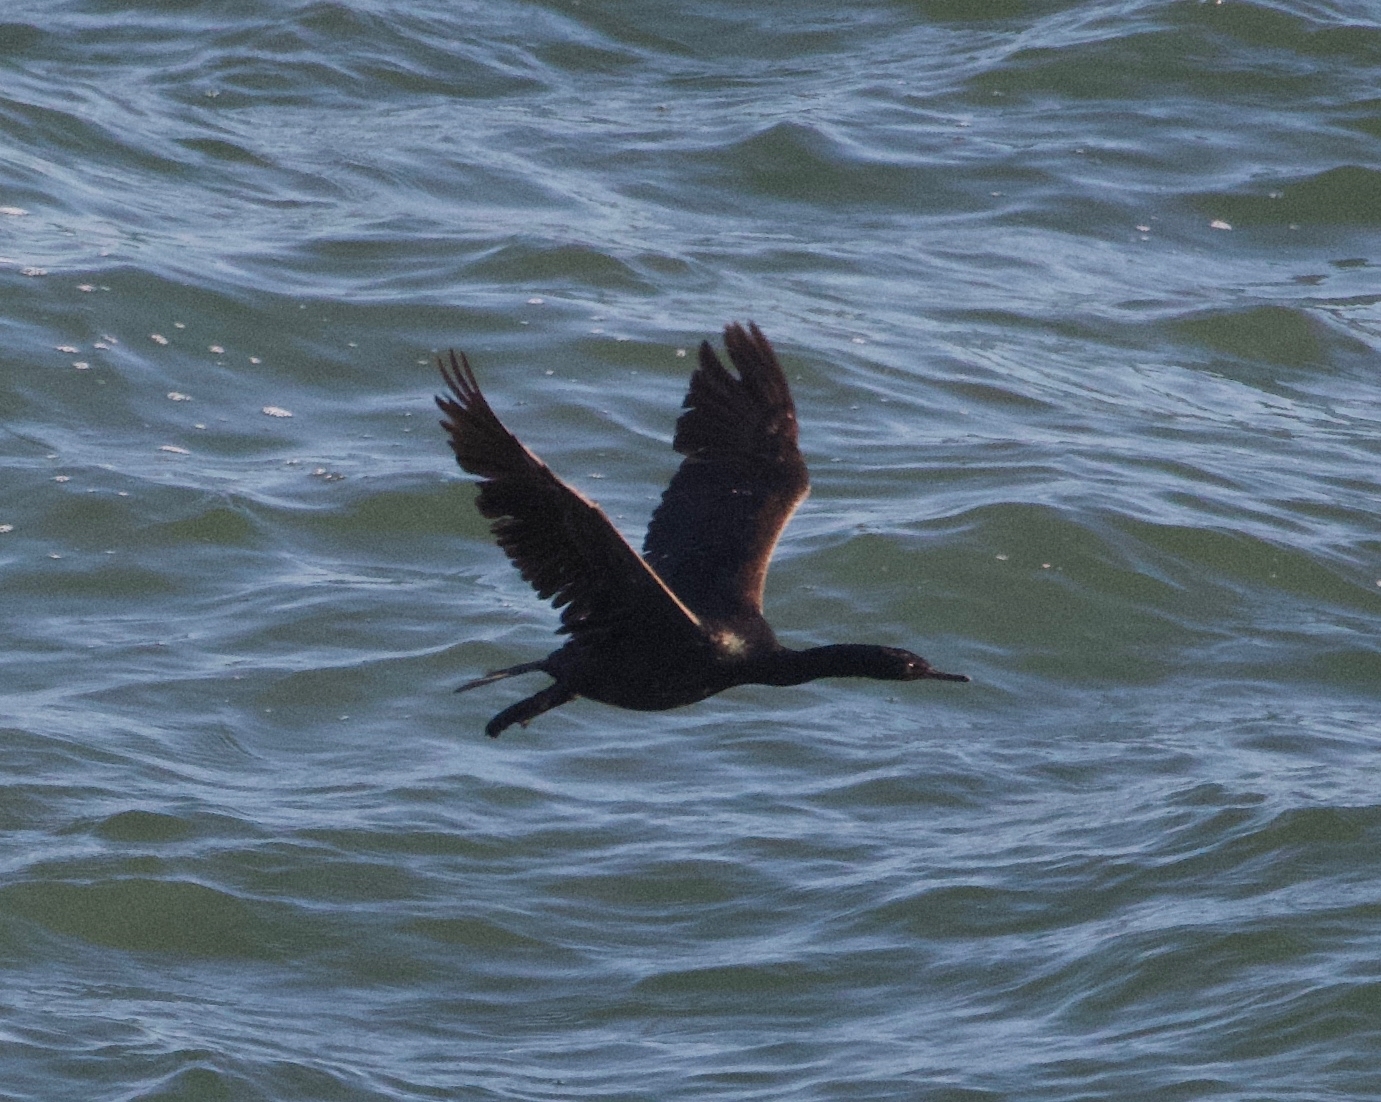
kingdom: Animalia
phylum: Chordata
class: Aves
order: Suliformes
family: Phalacrocoracidae
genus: Phalacrocorax
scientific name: Phalacrocorax pelagicus
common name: Pelagic cormorant
